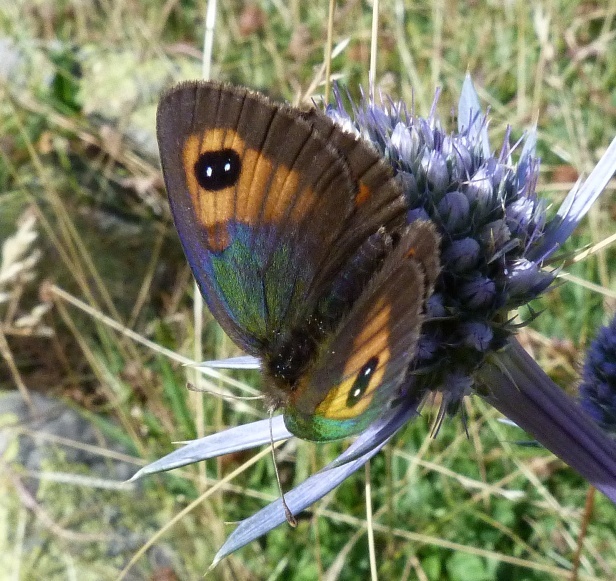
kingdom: Animalia
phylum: Arthropoda
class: Insecta
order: Lepidoptera
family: Nymphalidae
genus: Erebia
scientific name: Erebia tyndarus
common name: Swiss brassy ringlet
